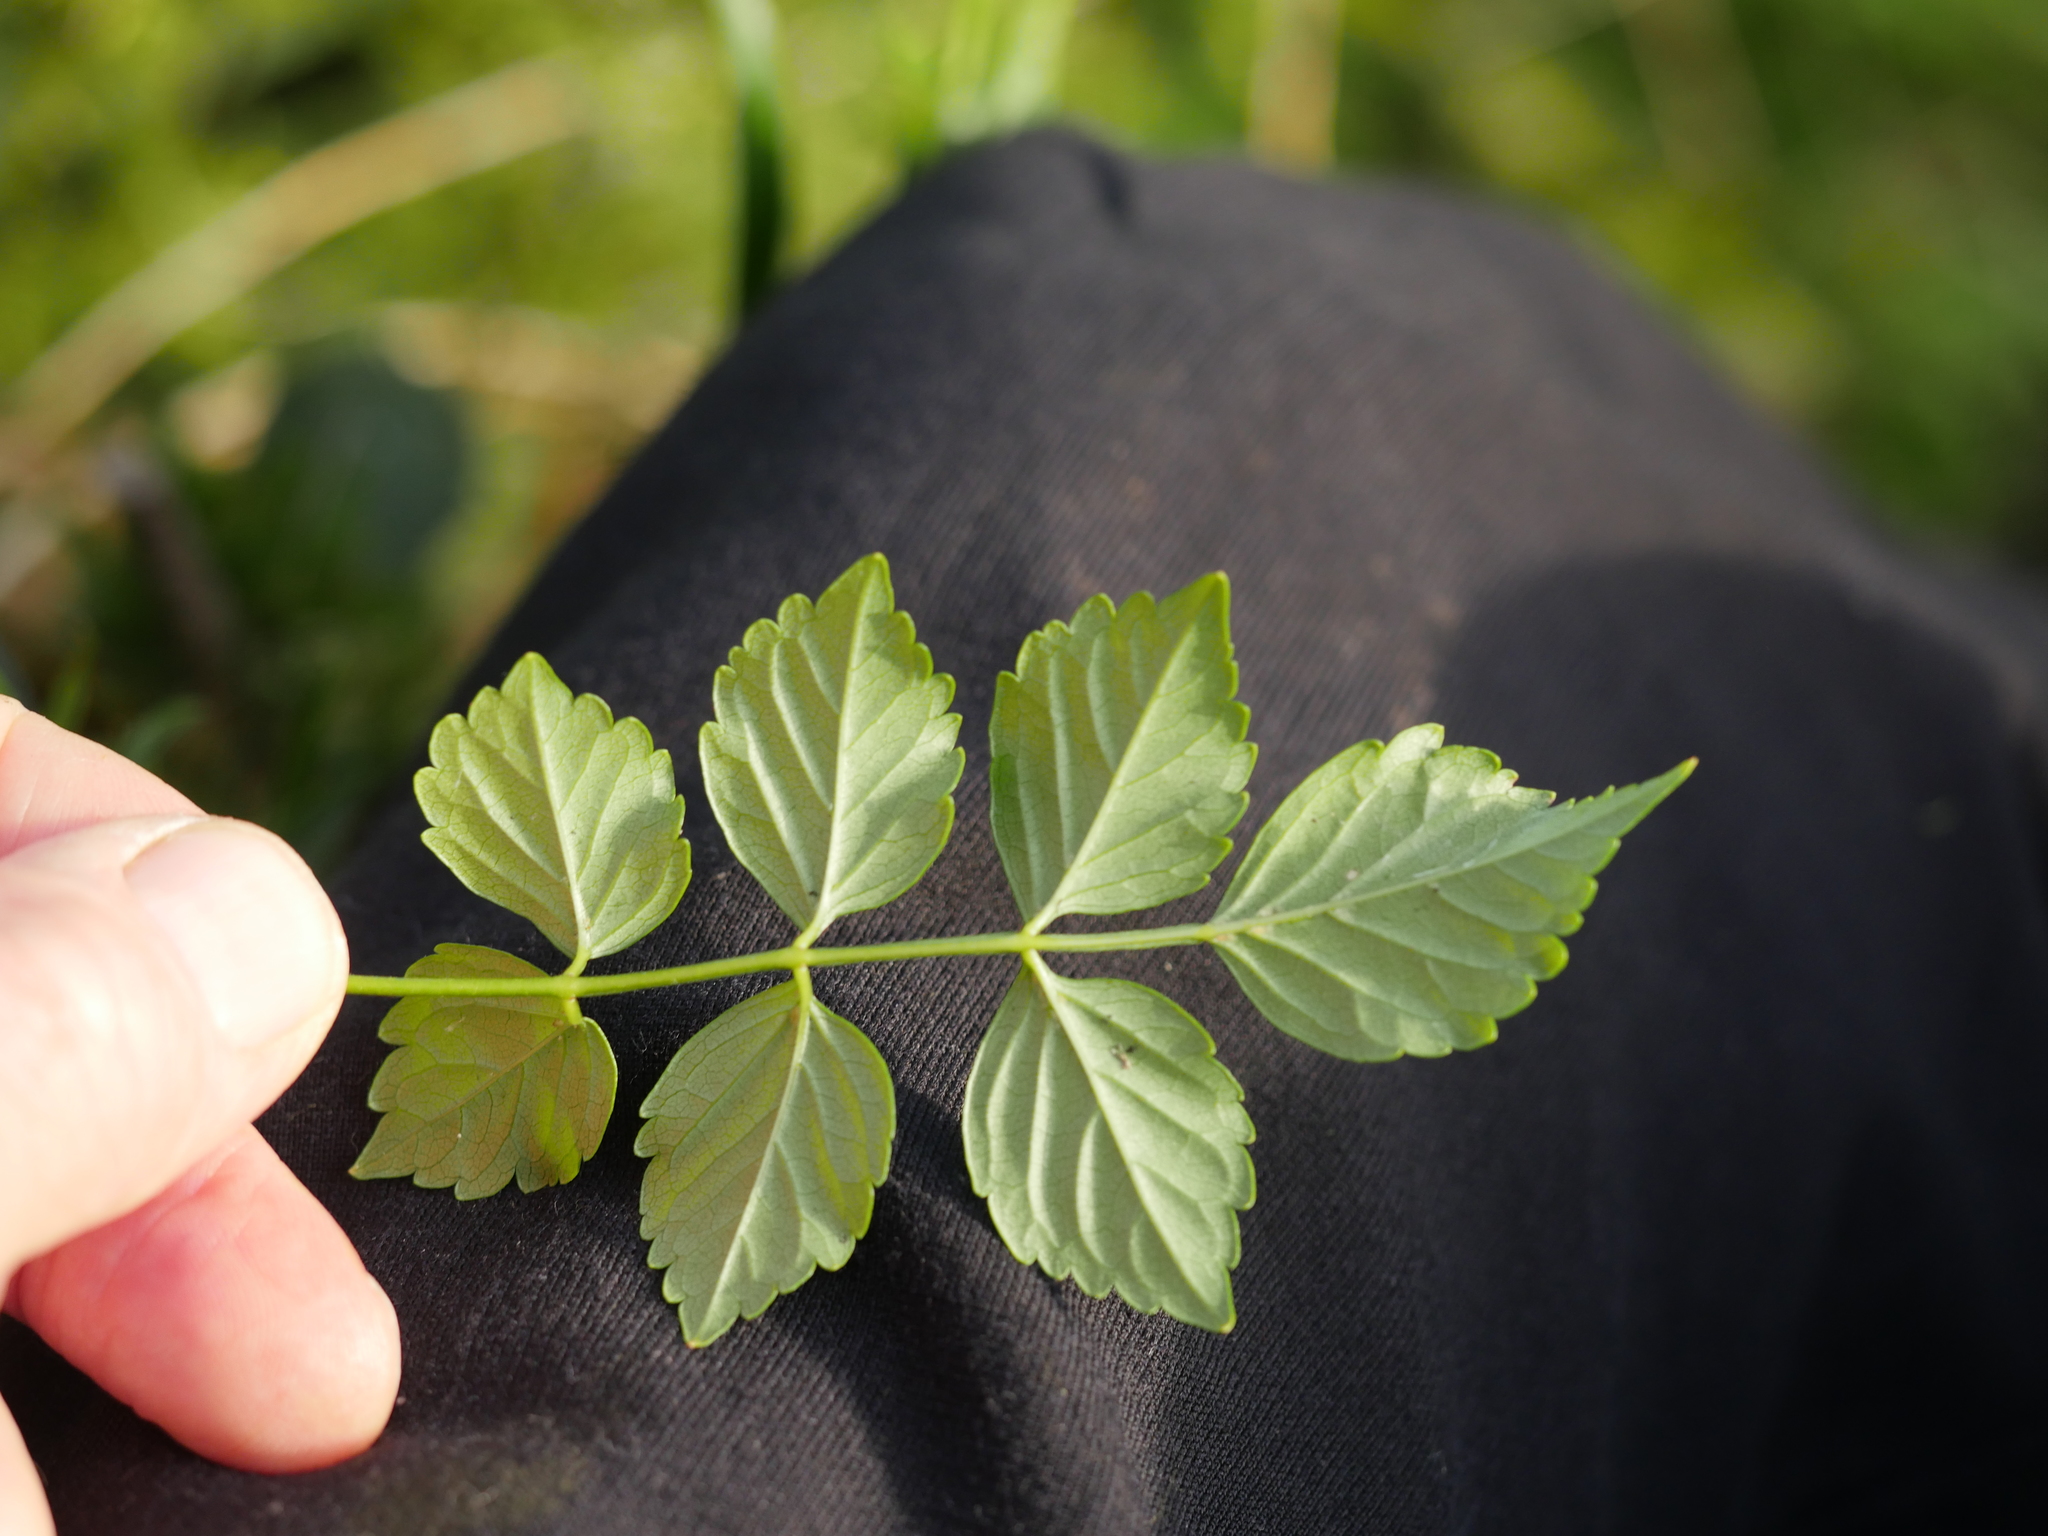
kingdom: Plantae
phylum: Tracheophyta
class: Magnoliopsida
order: Lamiales
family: Bignoniaceae
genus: Tecomaria
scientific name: Tecomaria capensis
